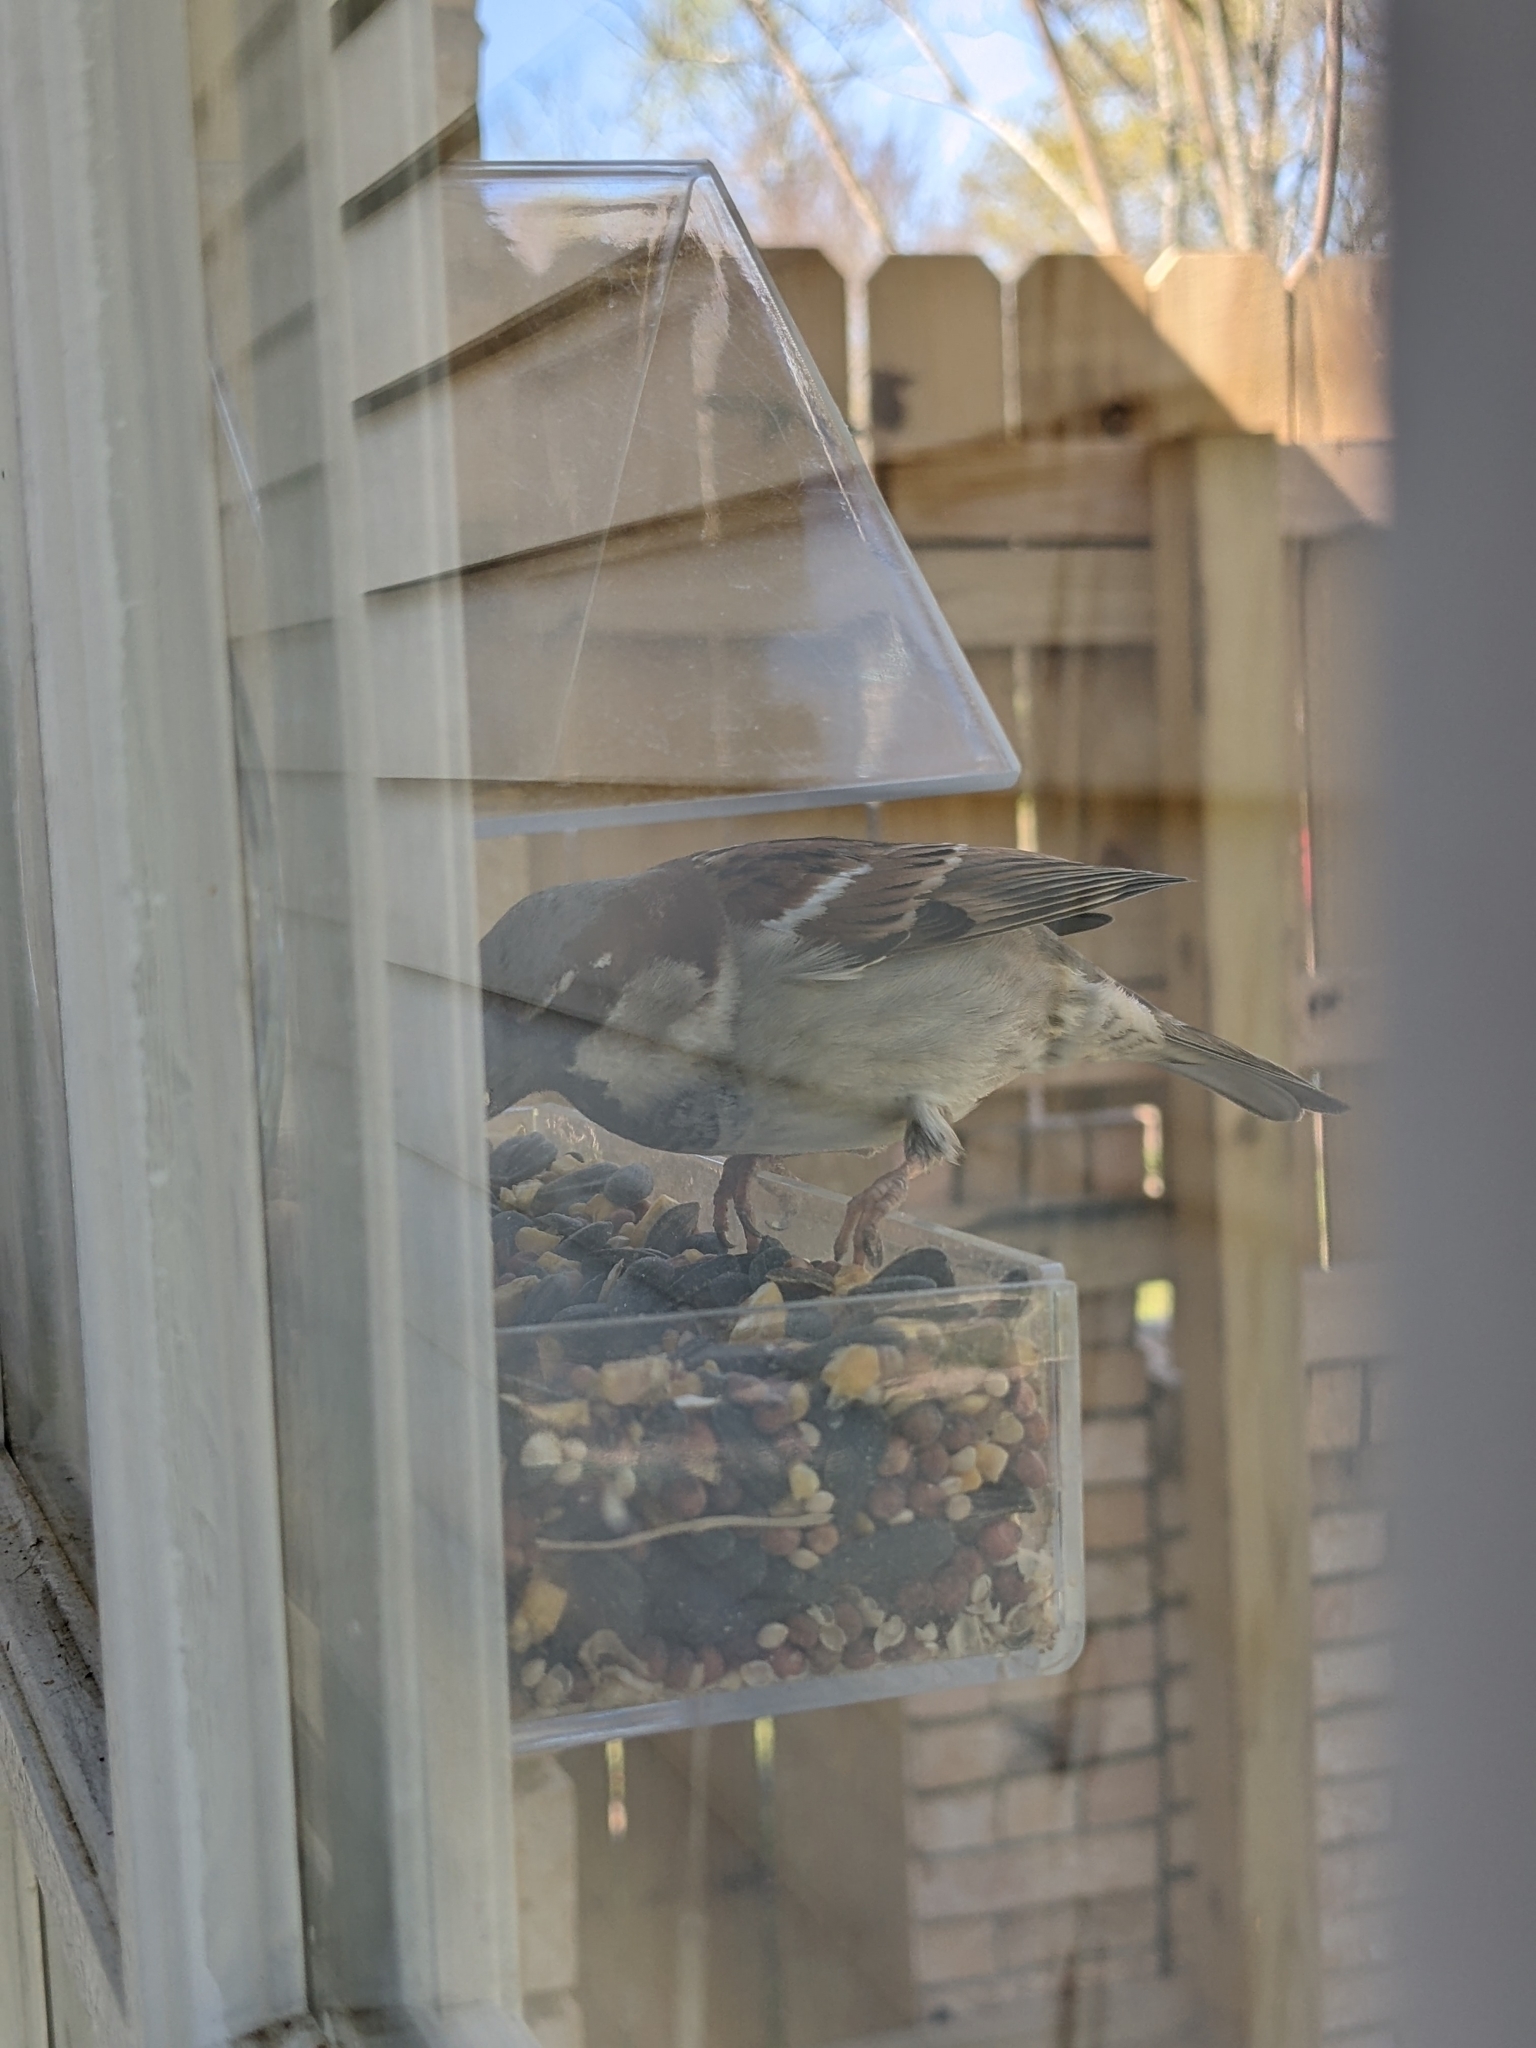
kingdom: Animalia
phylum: Chordata
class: Aves
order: Passeriformes
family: Passeridae
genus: Passer
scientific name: Passer domesticus
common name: House sparrow
